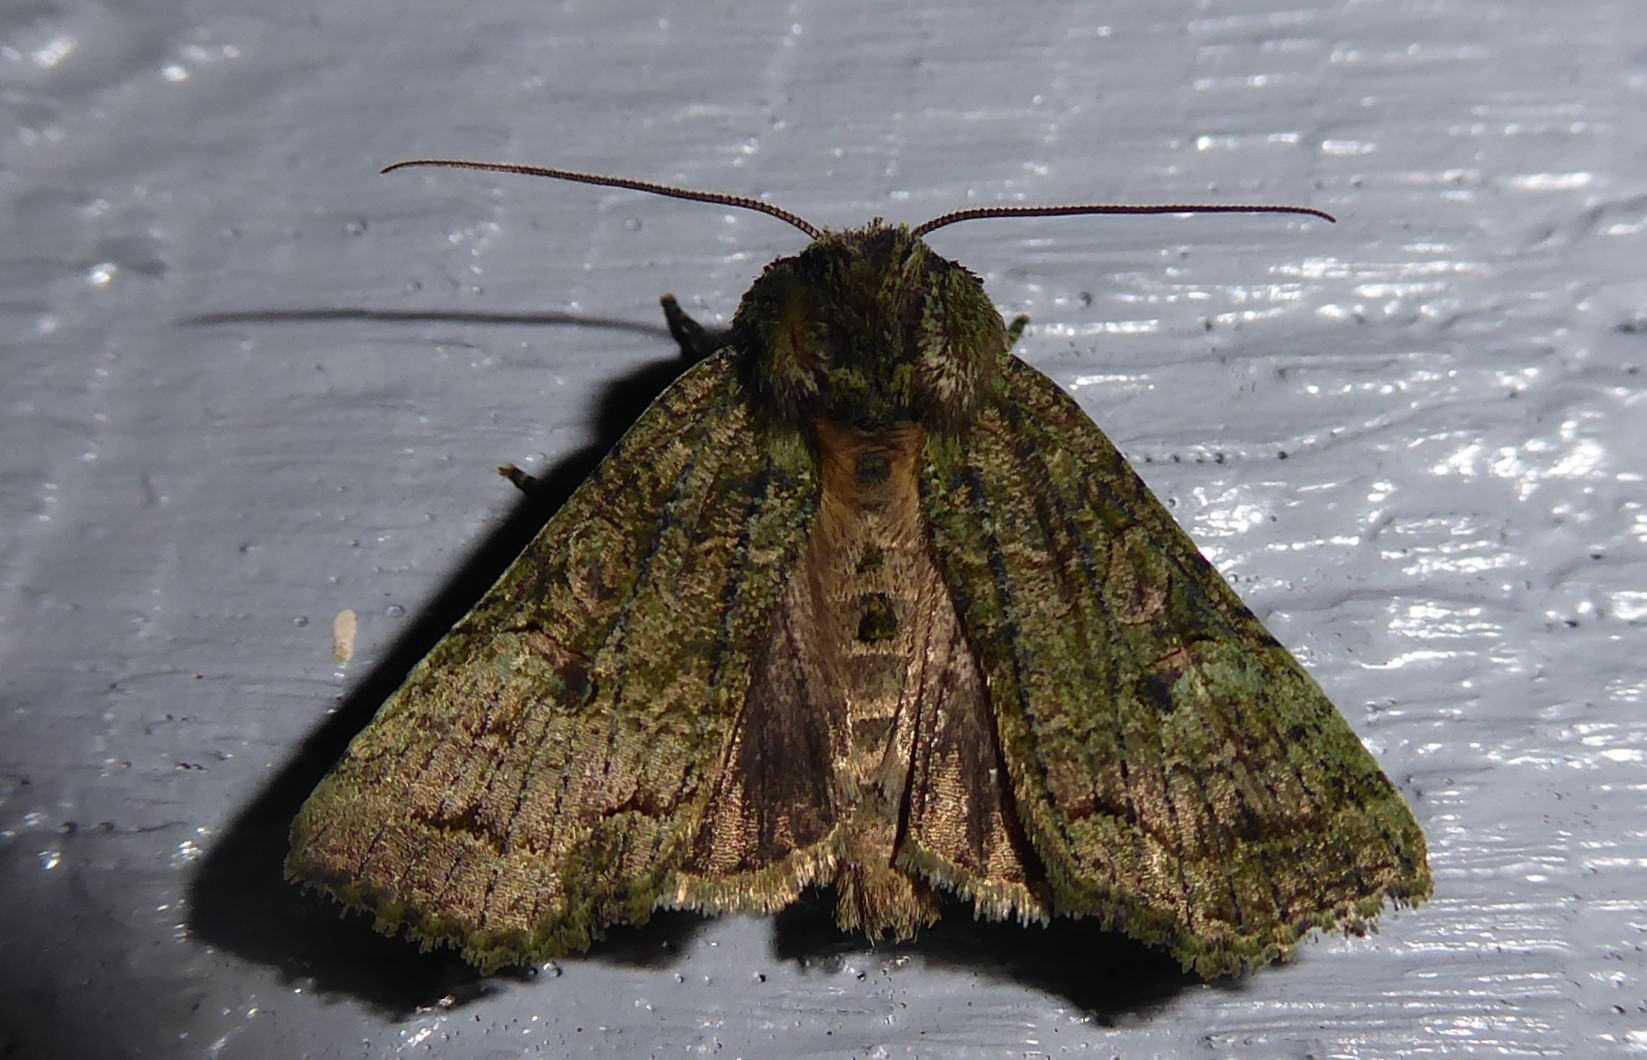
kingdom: Animalia
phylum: Arthropoda
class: Insecta
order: Lepidoptera
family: Noctuidae
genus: Meterana
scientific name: Meterana levis
